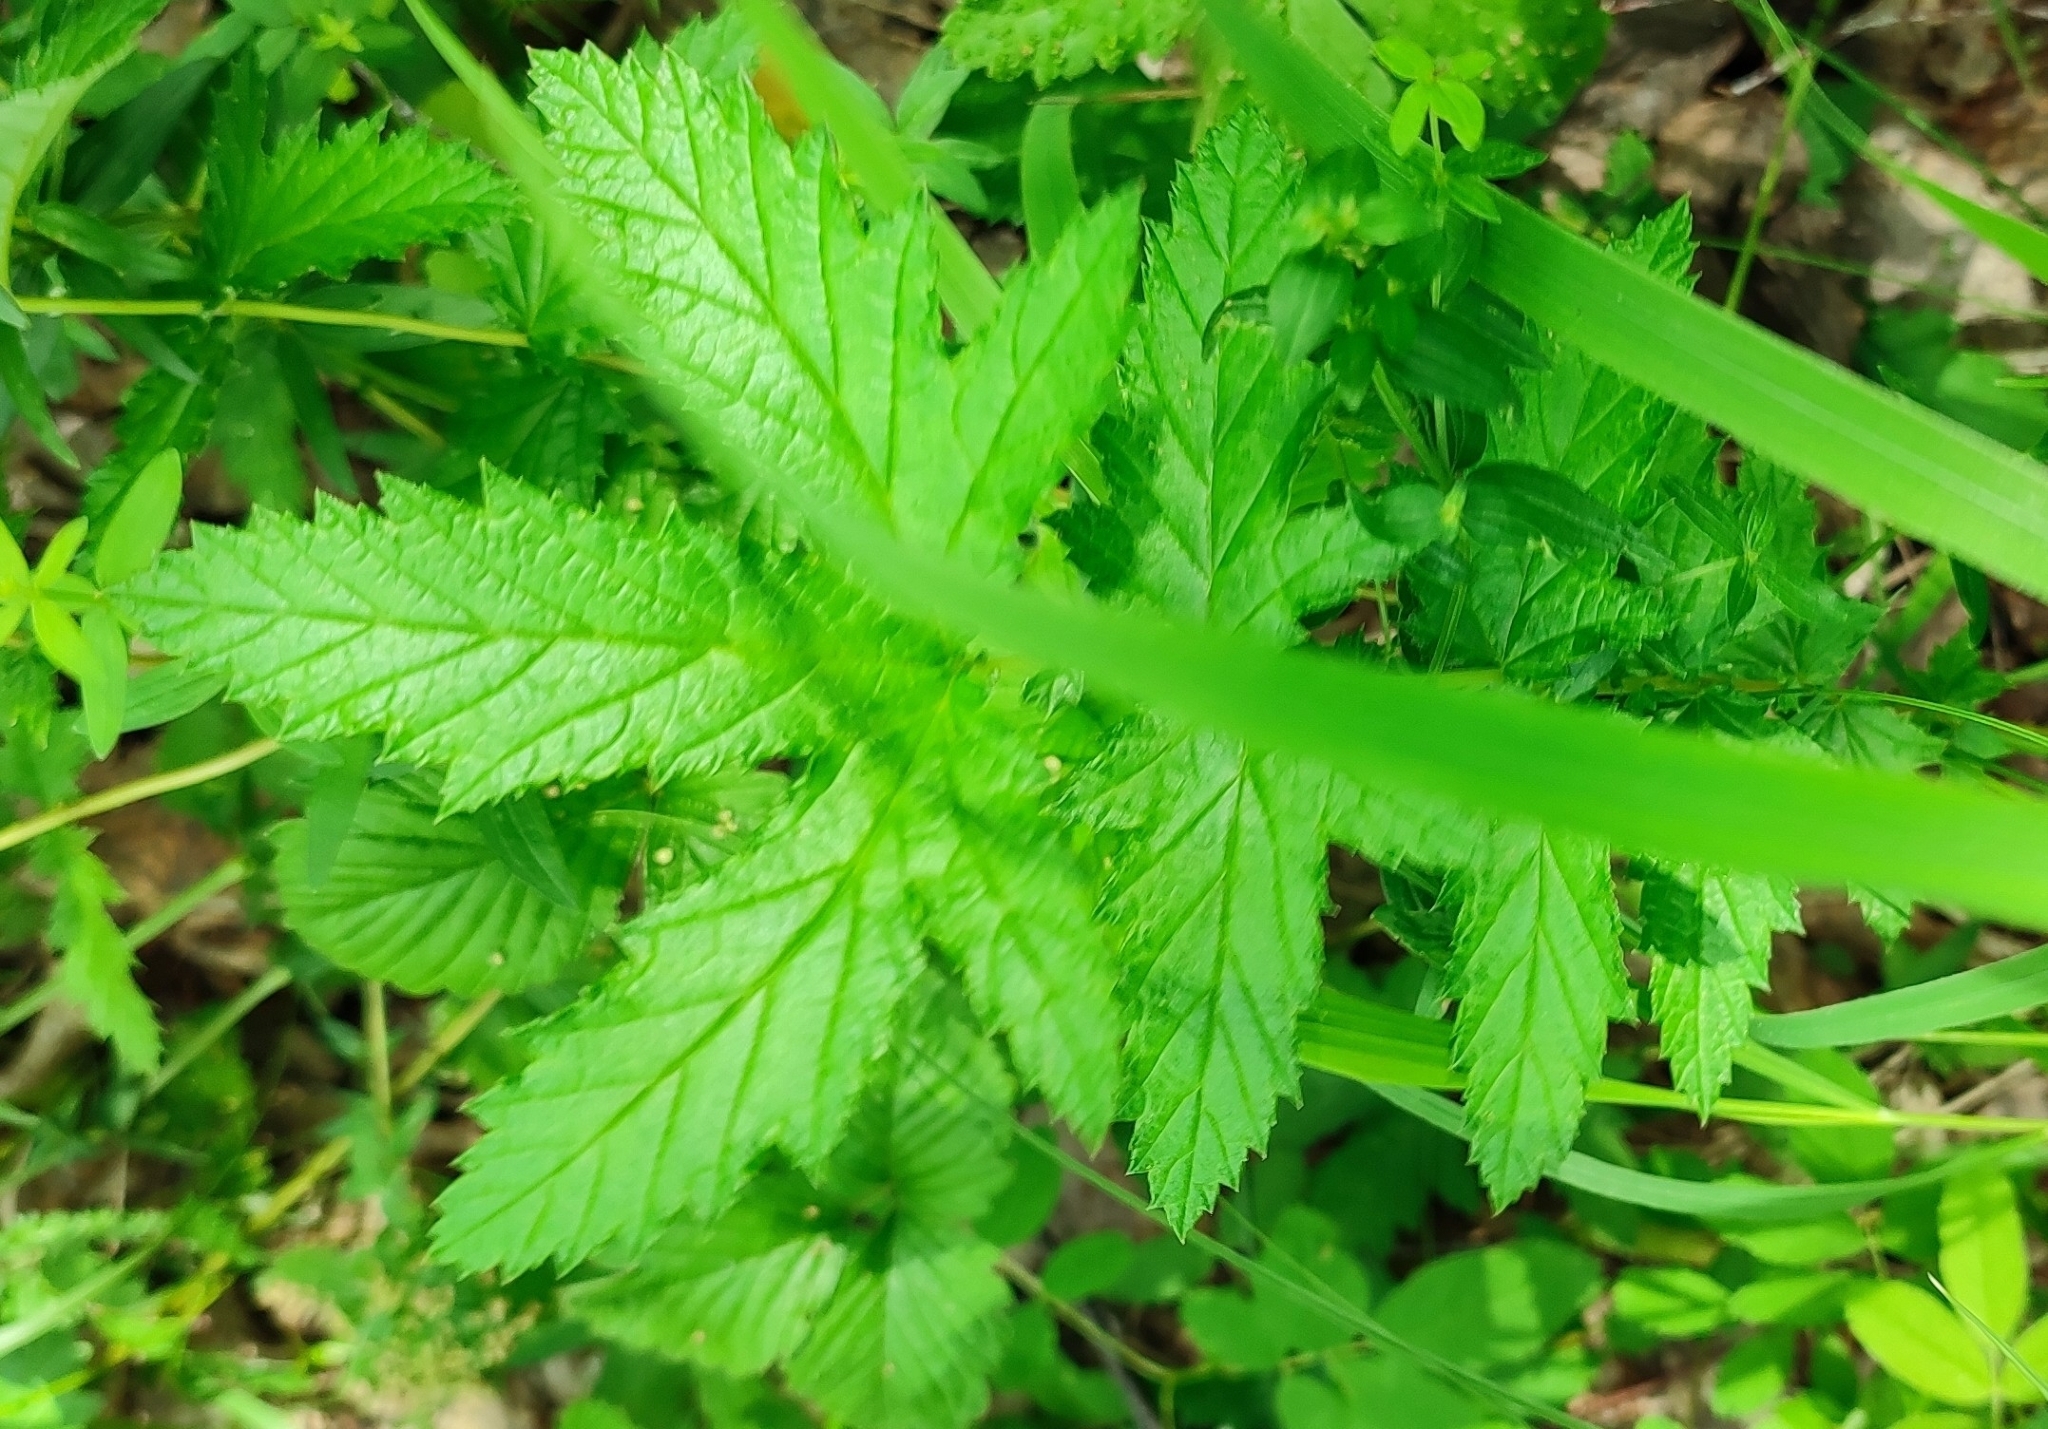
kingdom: Plantae
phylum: Tracheophyta
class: Magnoliopsida
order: Rosales
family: Rosaceae
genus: Filipendula
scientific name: Filipendula ulmaria
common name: Meadowsweet
